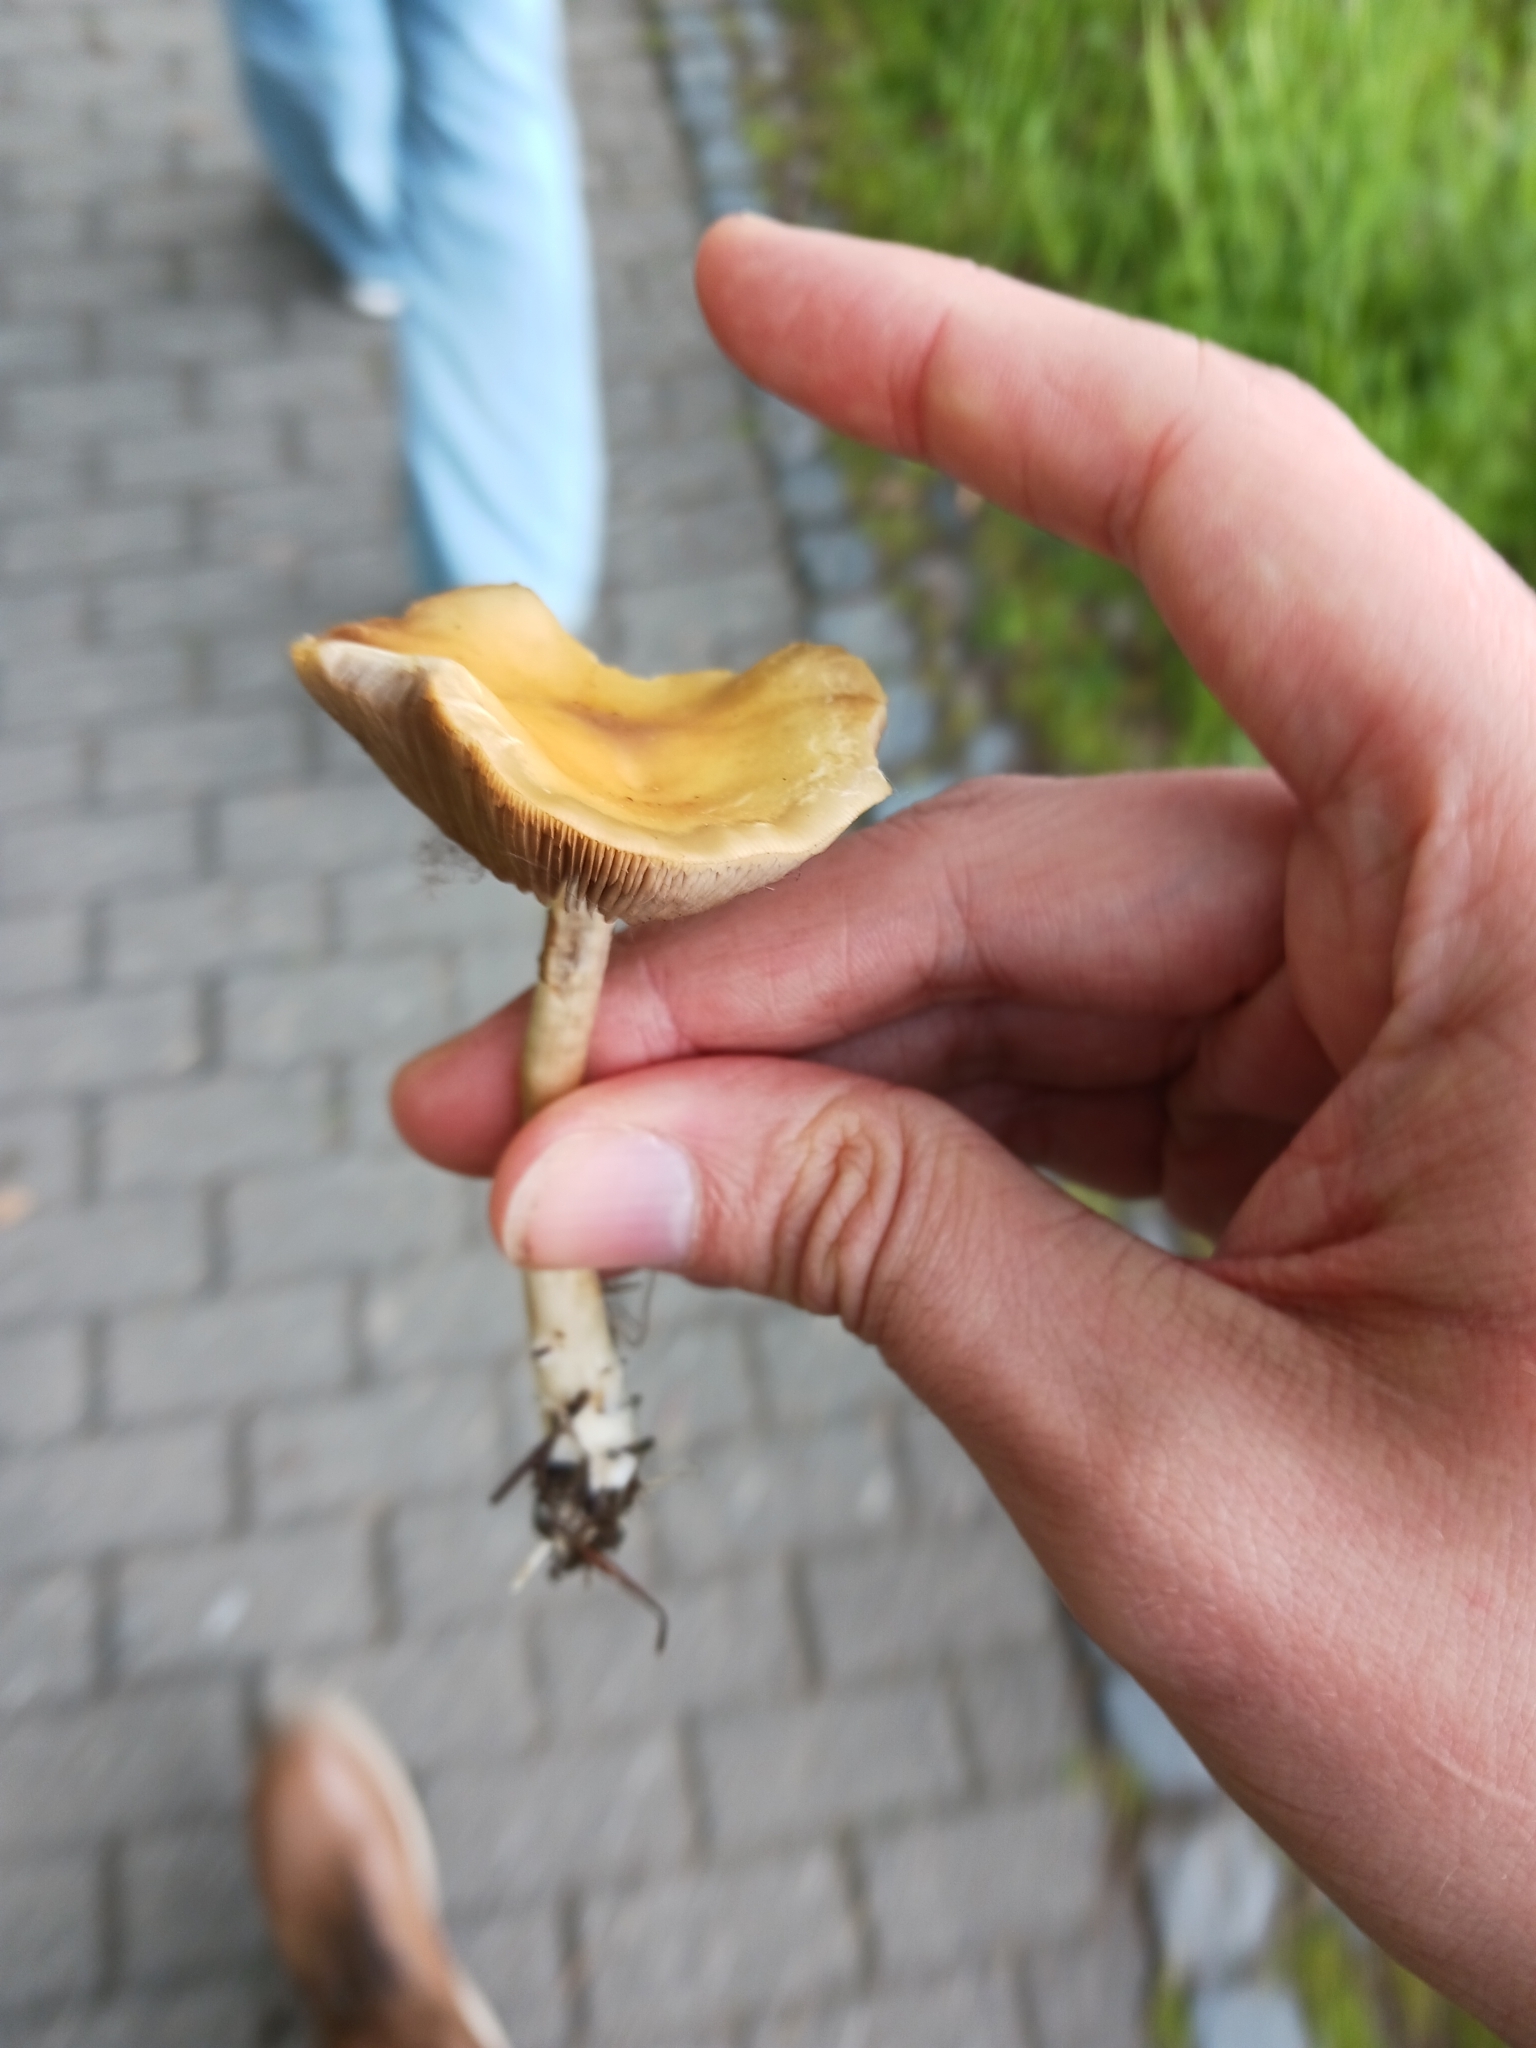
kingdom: Fungi
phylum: Basidiomycota
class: Agaricomycetes
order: Agaricales
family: Strophariaceae
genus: Agrocybe
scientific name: Agrocybe praecox
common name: Spring fieldcap
